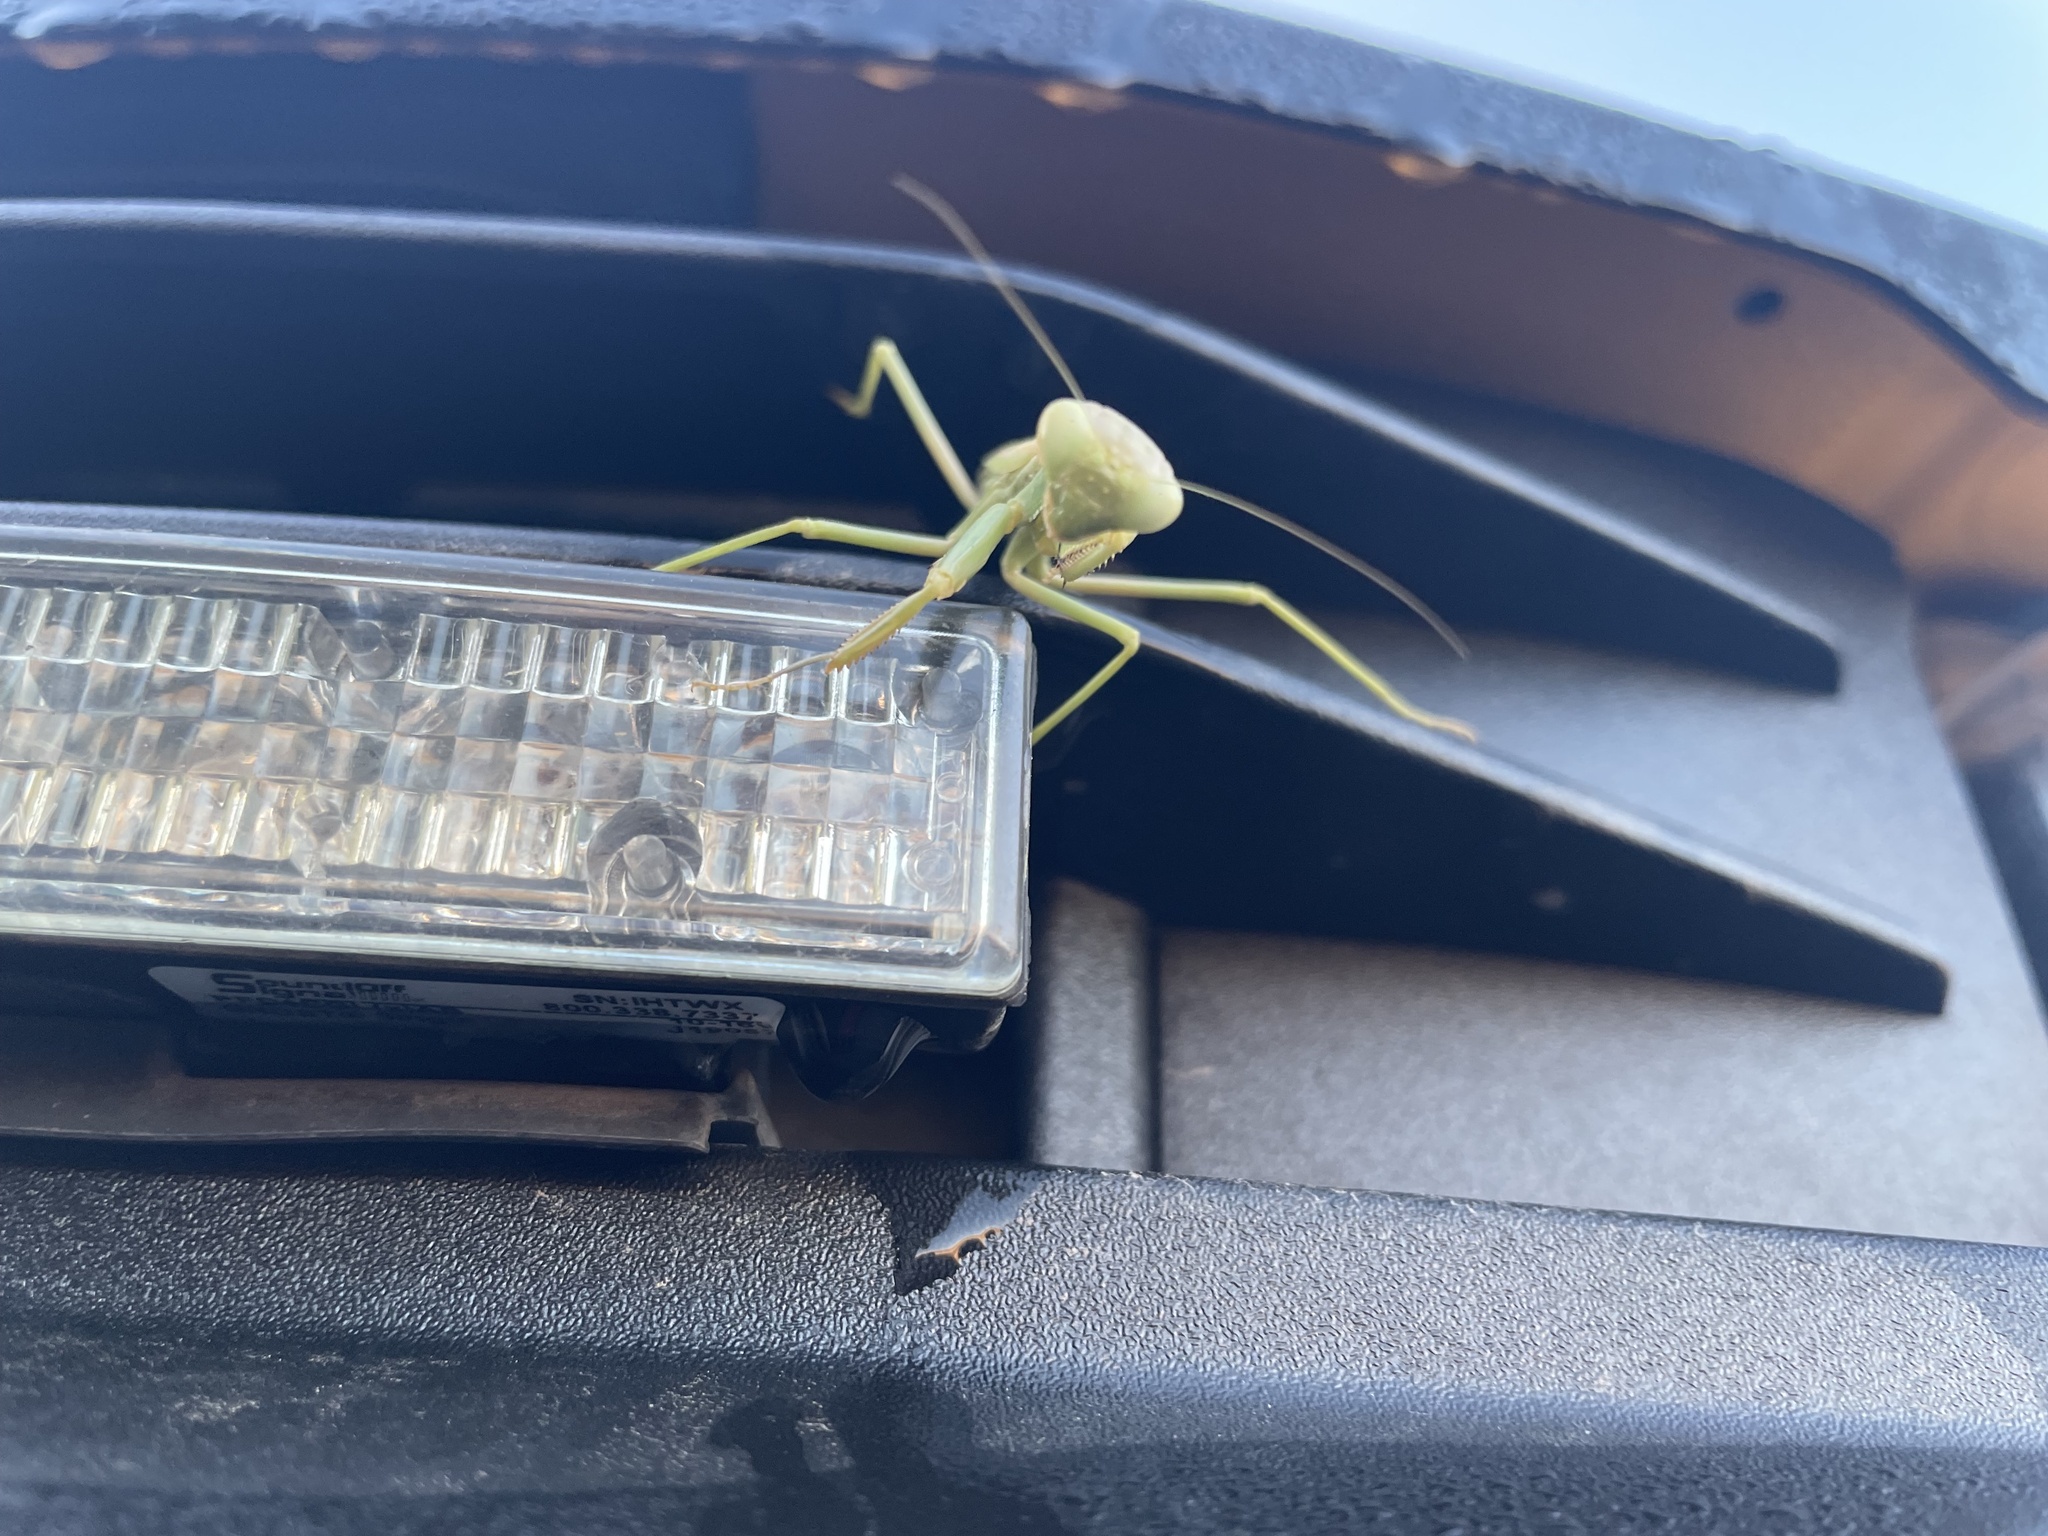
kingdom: Animalia
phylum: Arthropoda
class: Insecta
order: Mantodea
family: Eremiaphilidae
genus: Iris
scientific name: Iris oratoria
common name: Mediterranean mantis
